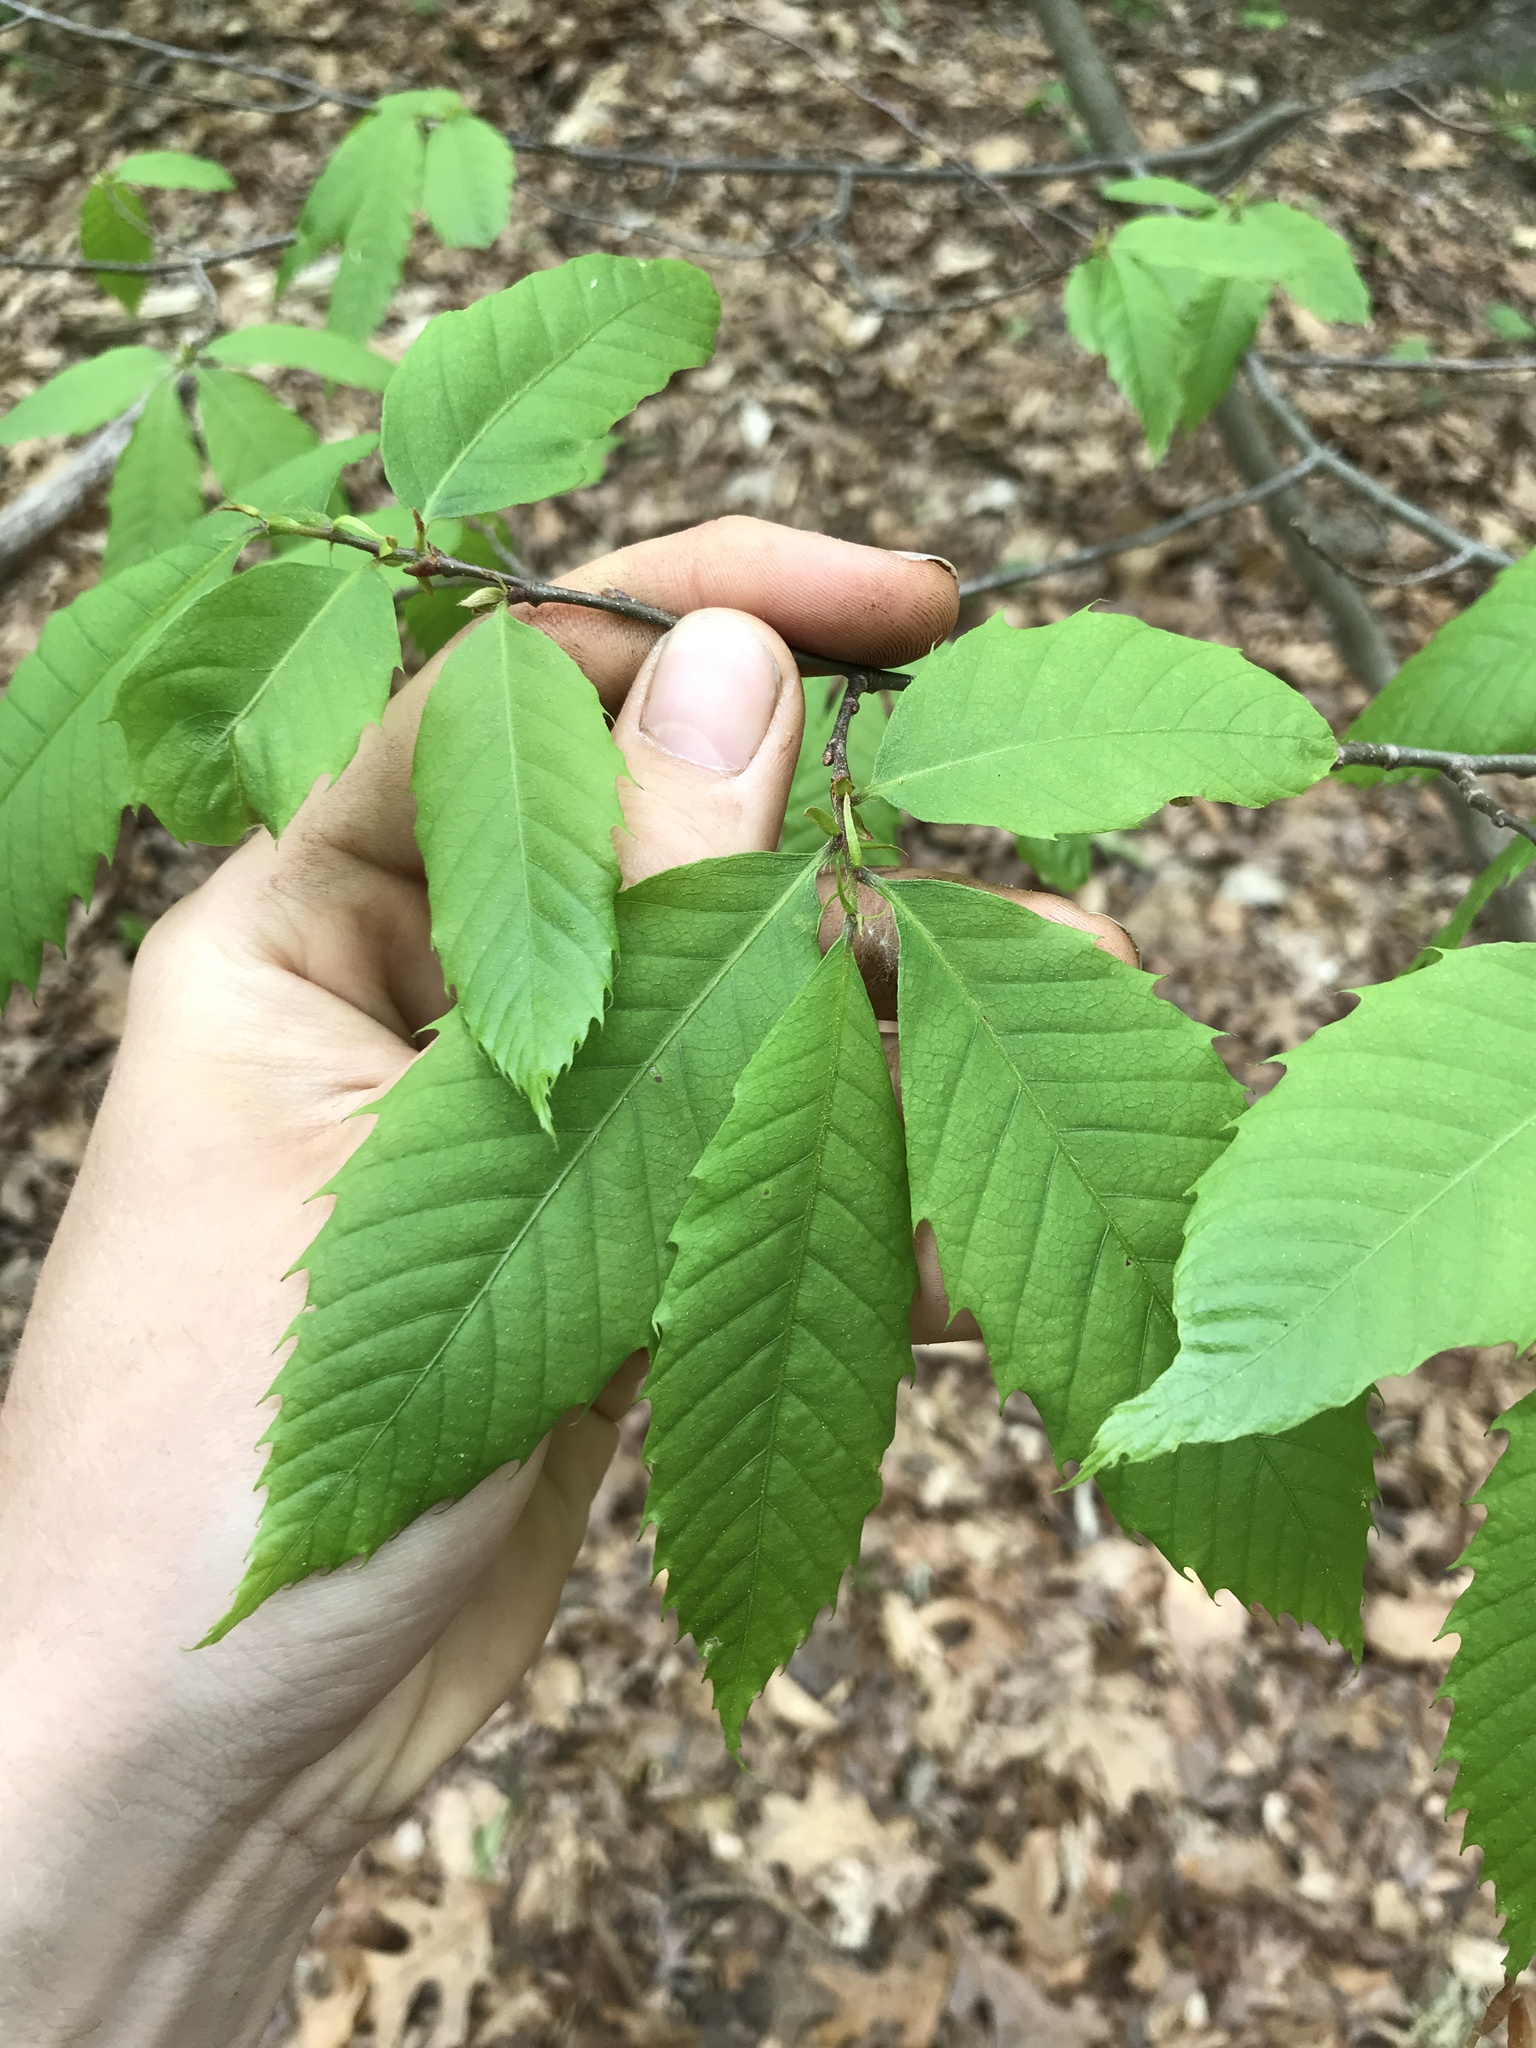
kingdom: Plantae
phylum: Tracheophyta
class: Magnoliopsida
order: Fagales
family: Fagaceae
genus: Castanea
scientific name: Castanea dentata
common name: American chestnut
